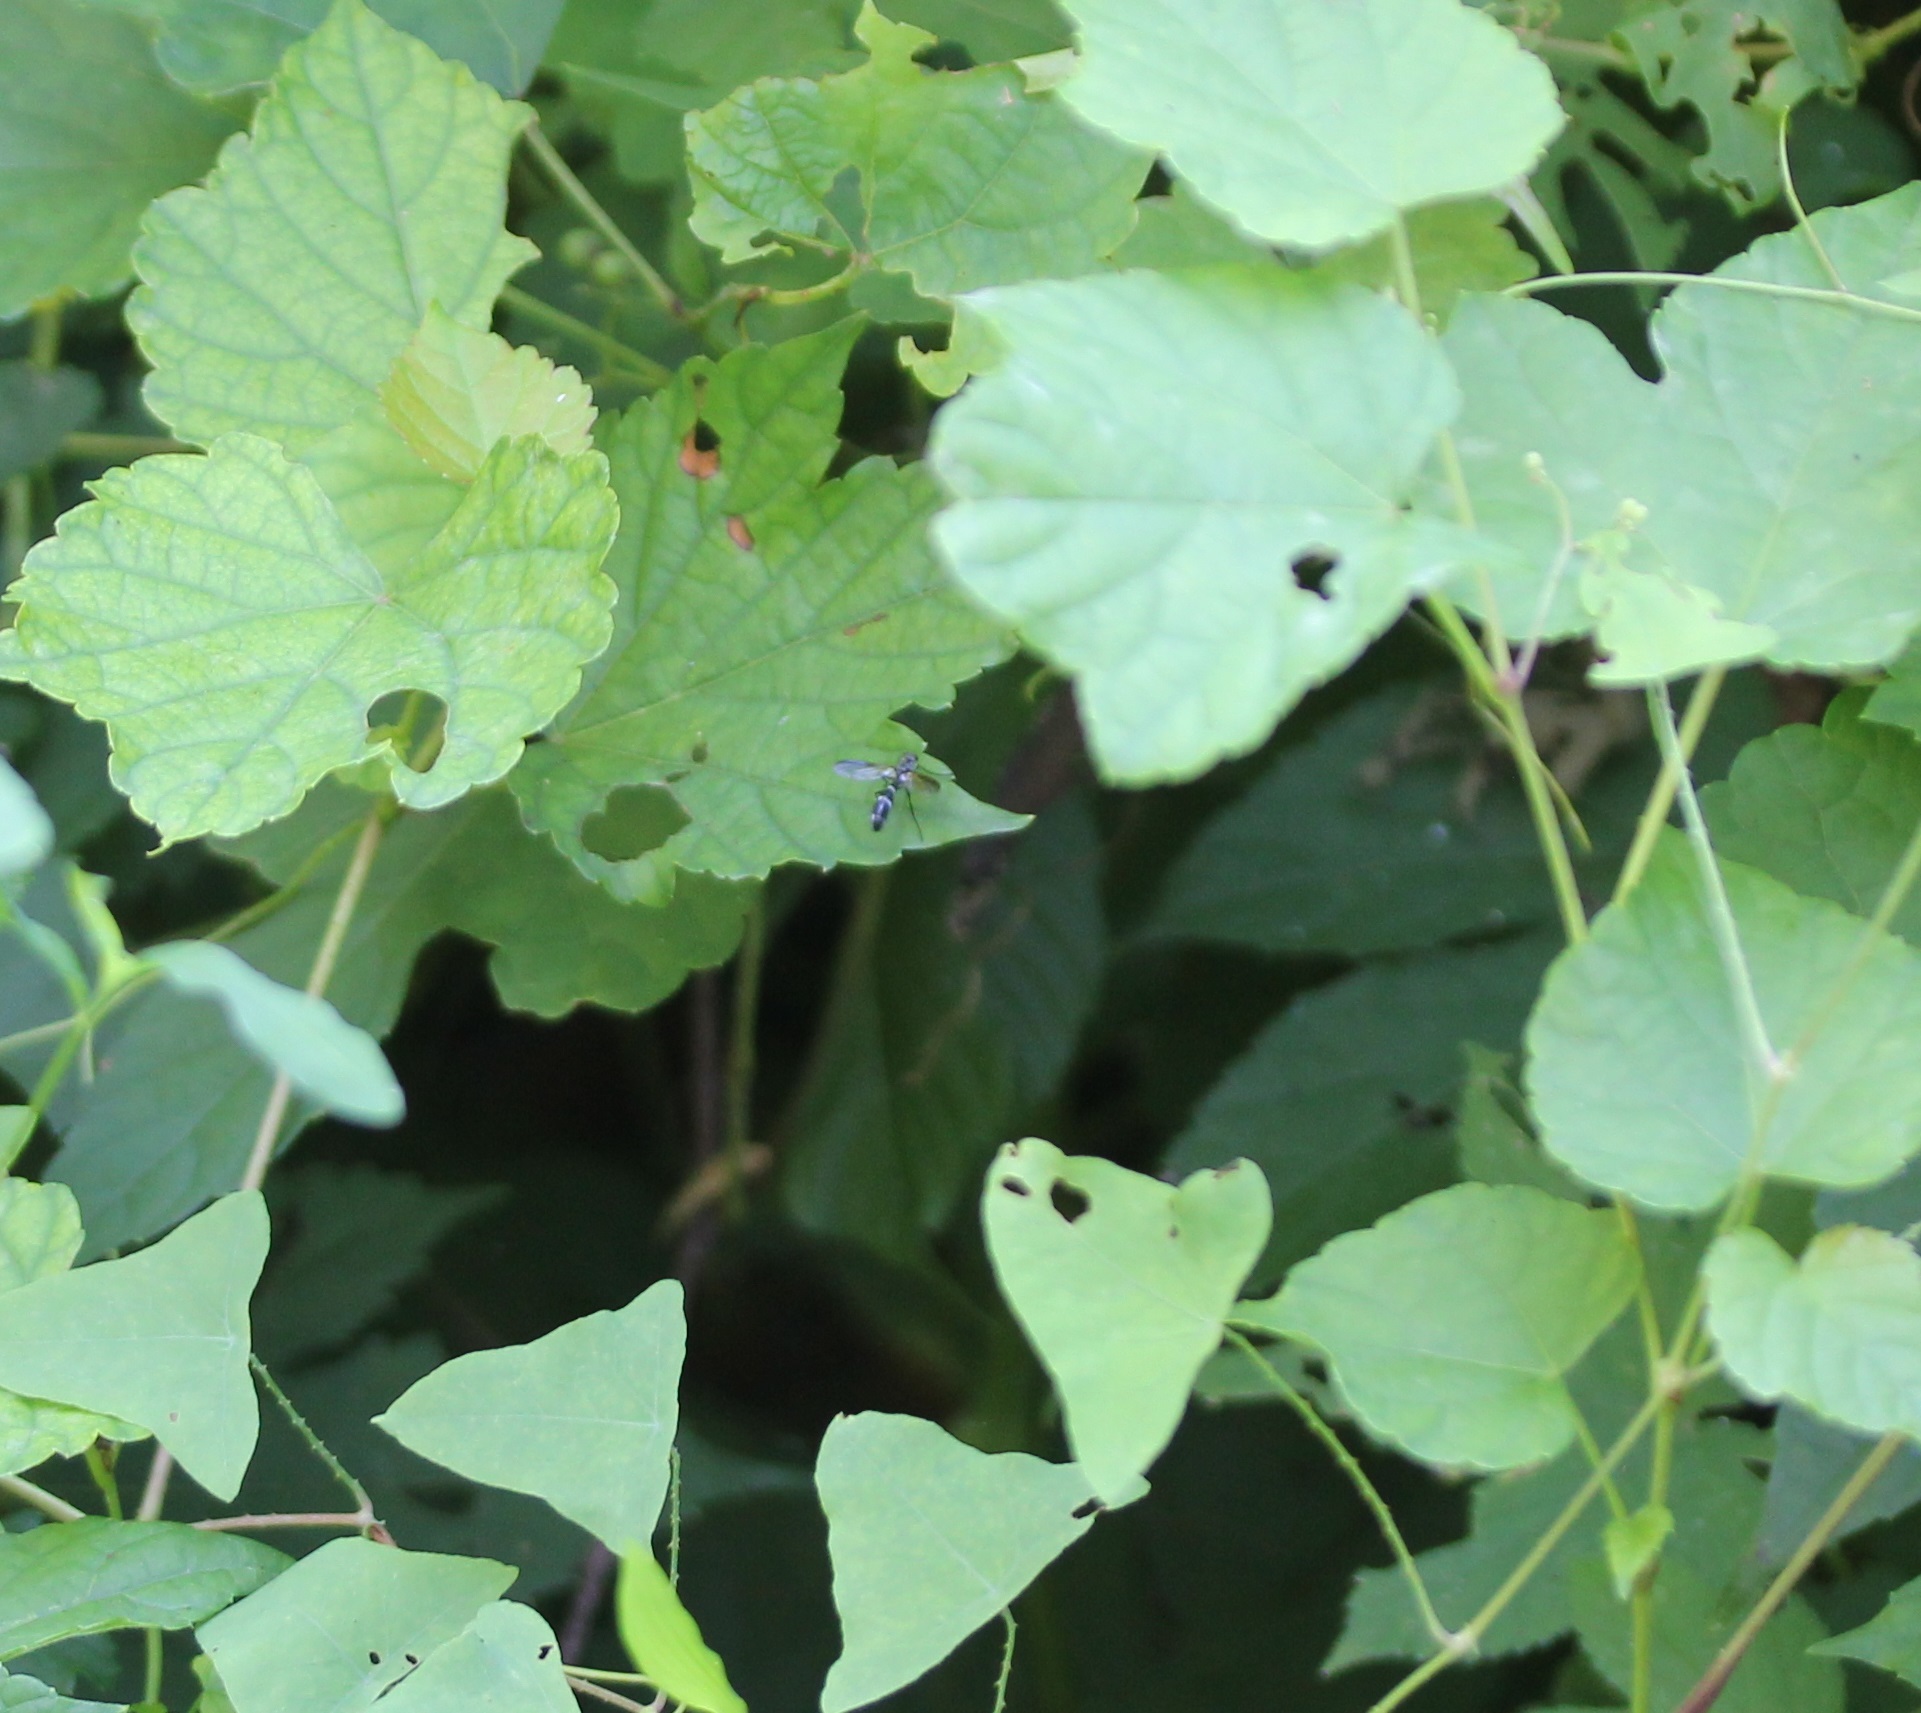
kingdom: Animalia
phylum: Arthropoda
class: Insecta
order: Diptera
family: Tachinidae
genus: Cordyligaster
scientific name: Cordyligaster septentrionalis
